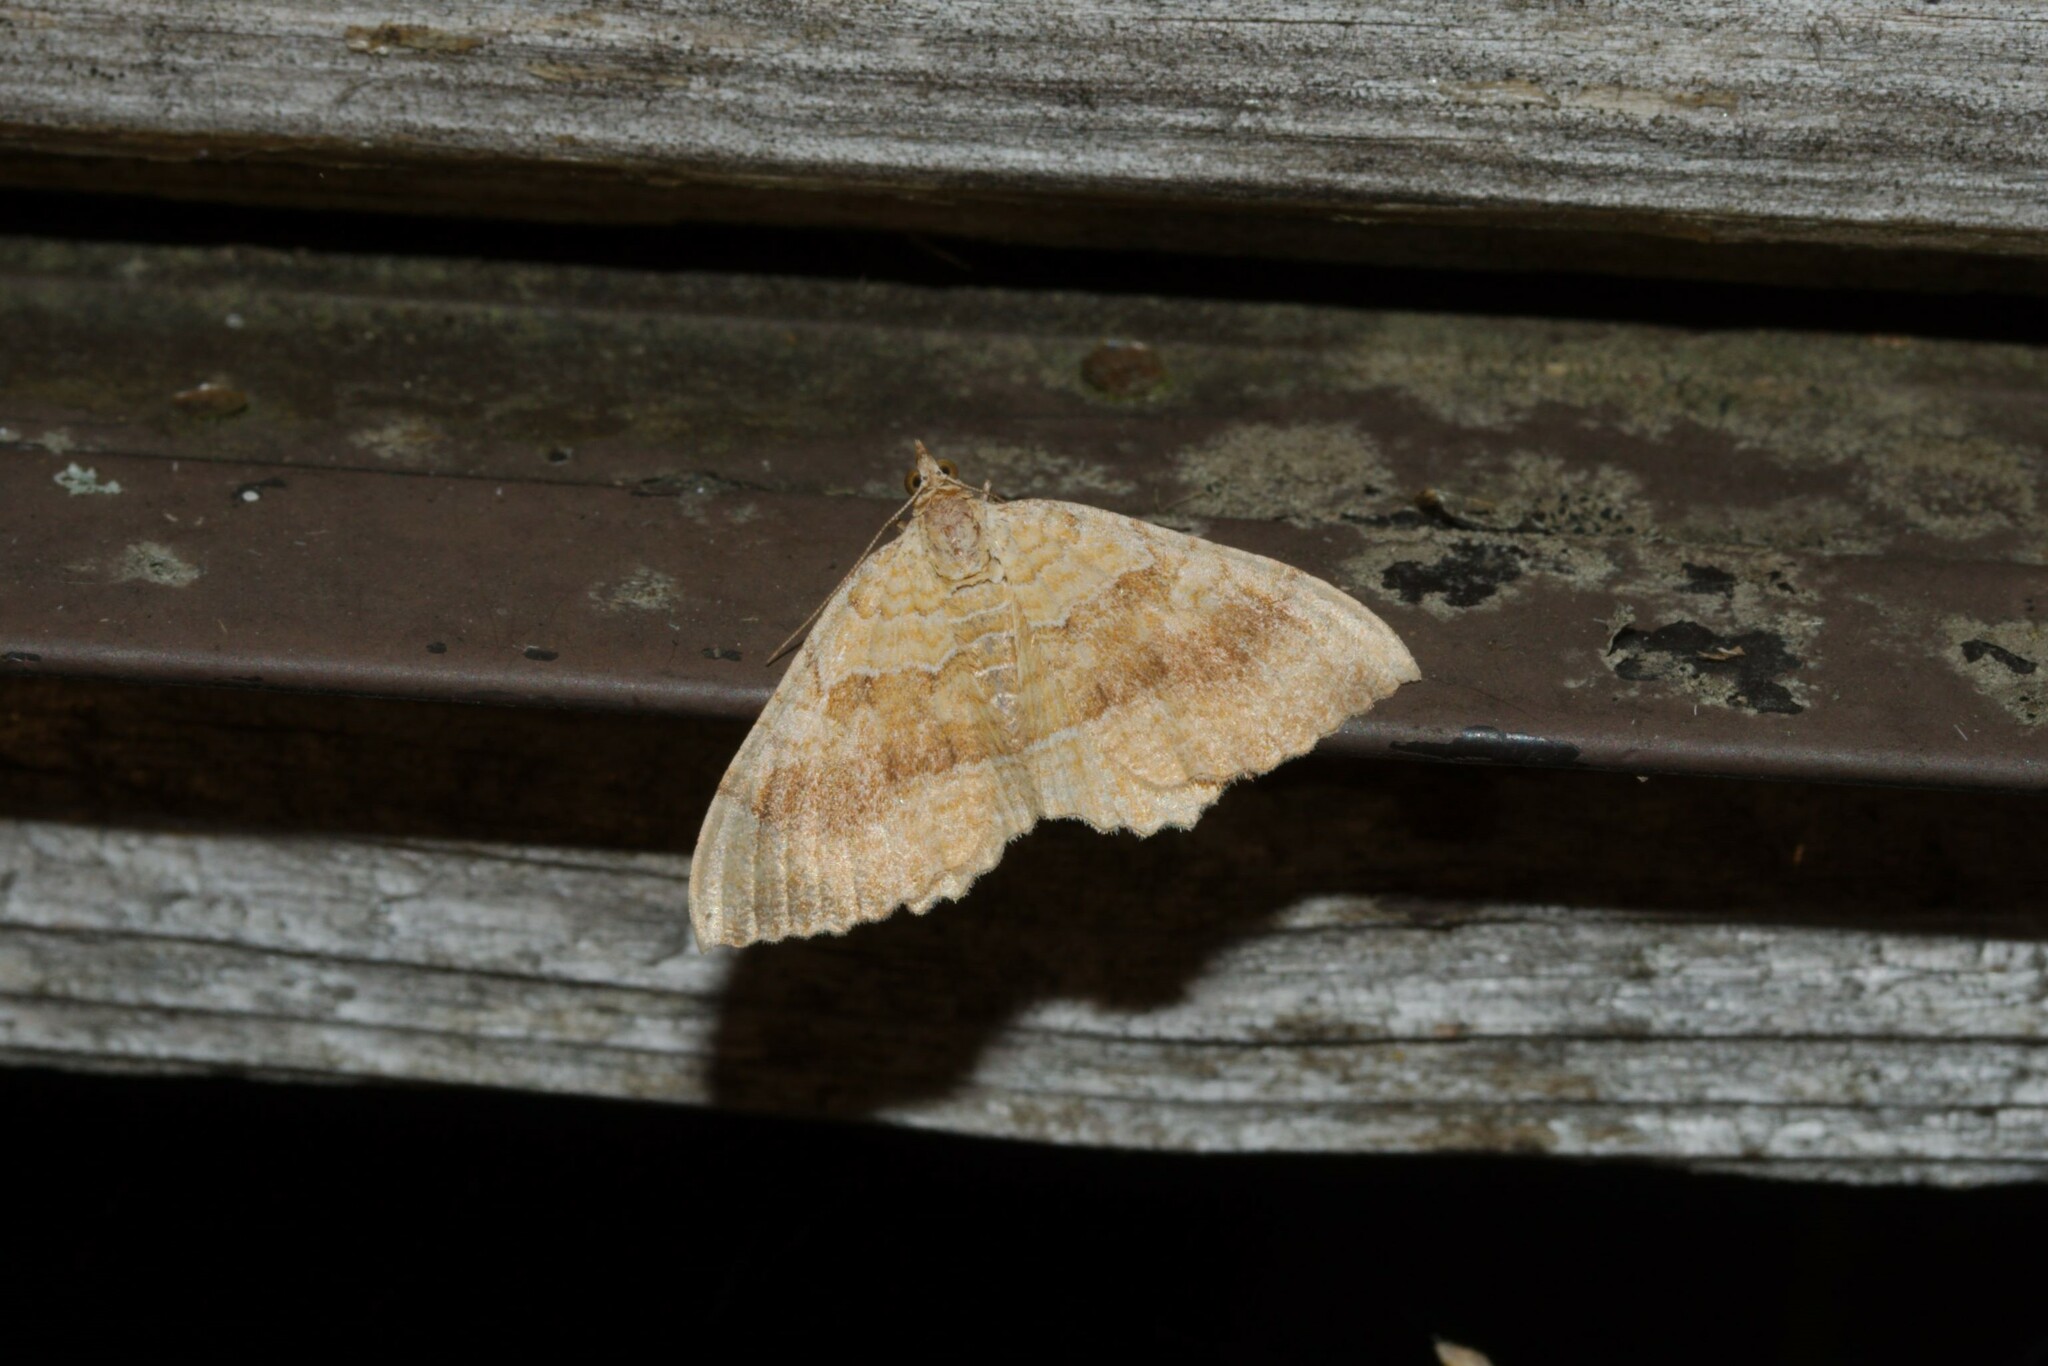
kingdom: Animalia
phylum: Arthropoda
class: Insecta
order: Lepidoptera
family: Geometridae
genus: Camptogramma
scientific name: Camptogramma bilineata
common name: Yellow shell
